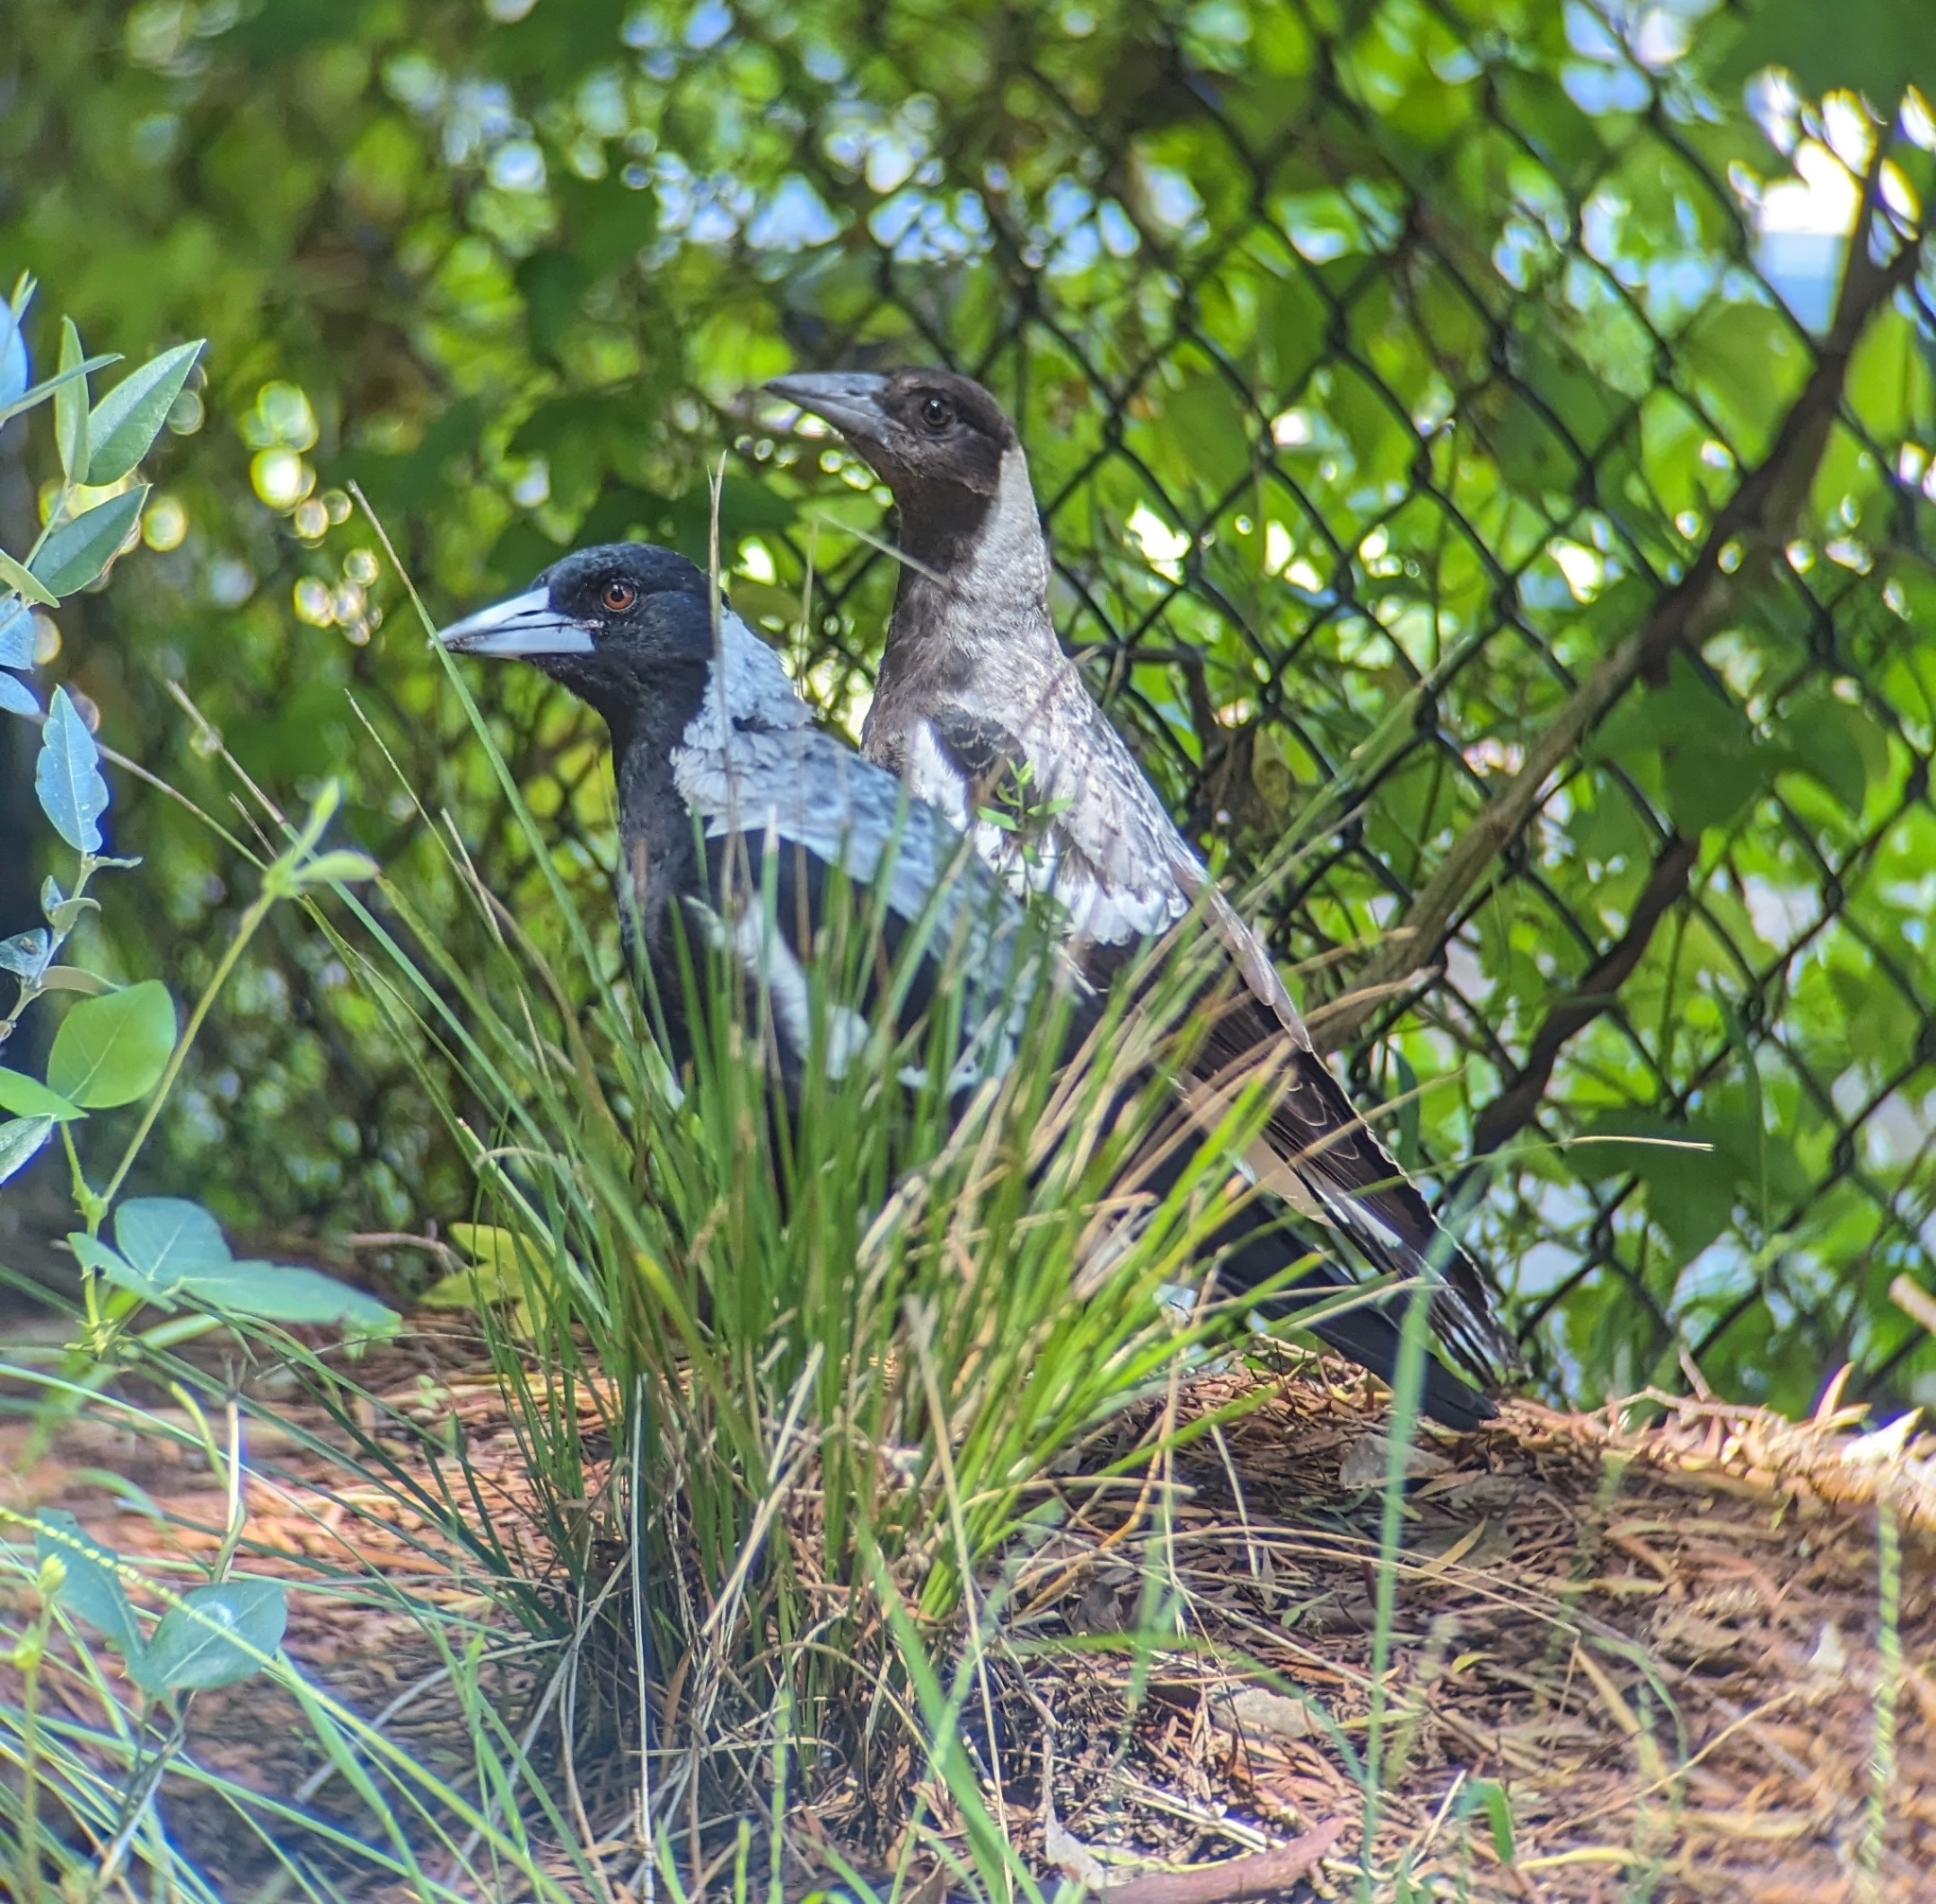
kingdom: Animalia
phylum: Chordata
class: Aves
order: Passeriformes
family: Cracticidae
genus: Gymnorhina
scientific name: Gymnorhina tibicen
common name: Australian magpie
